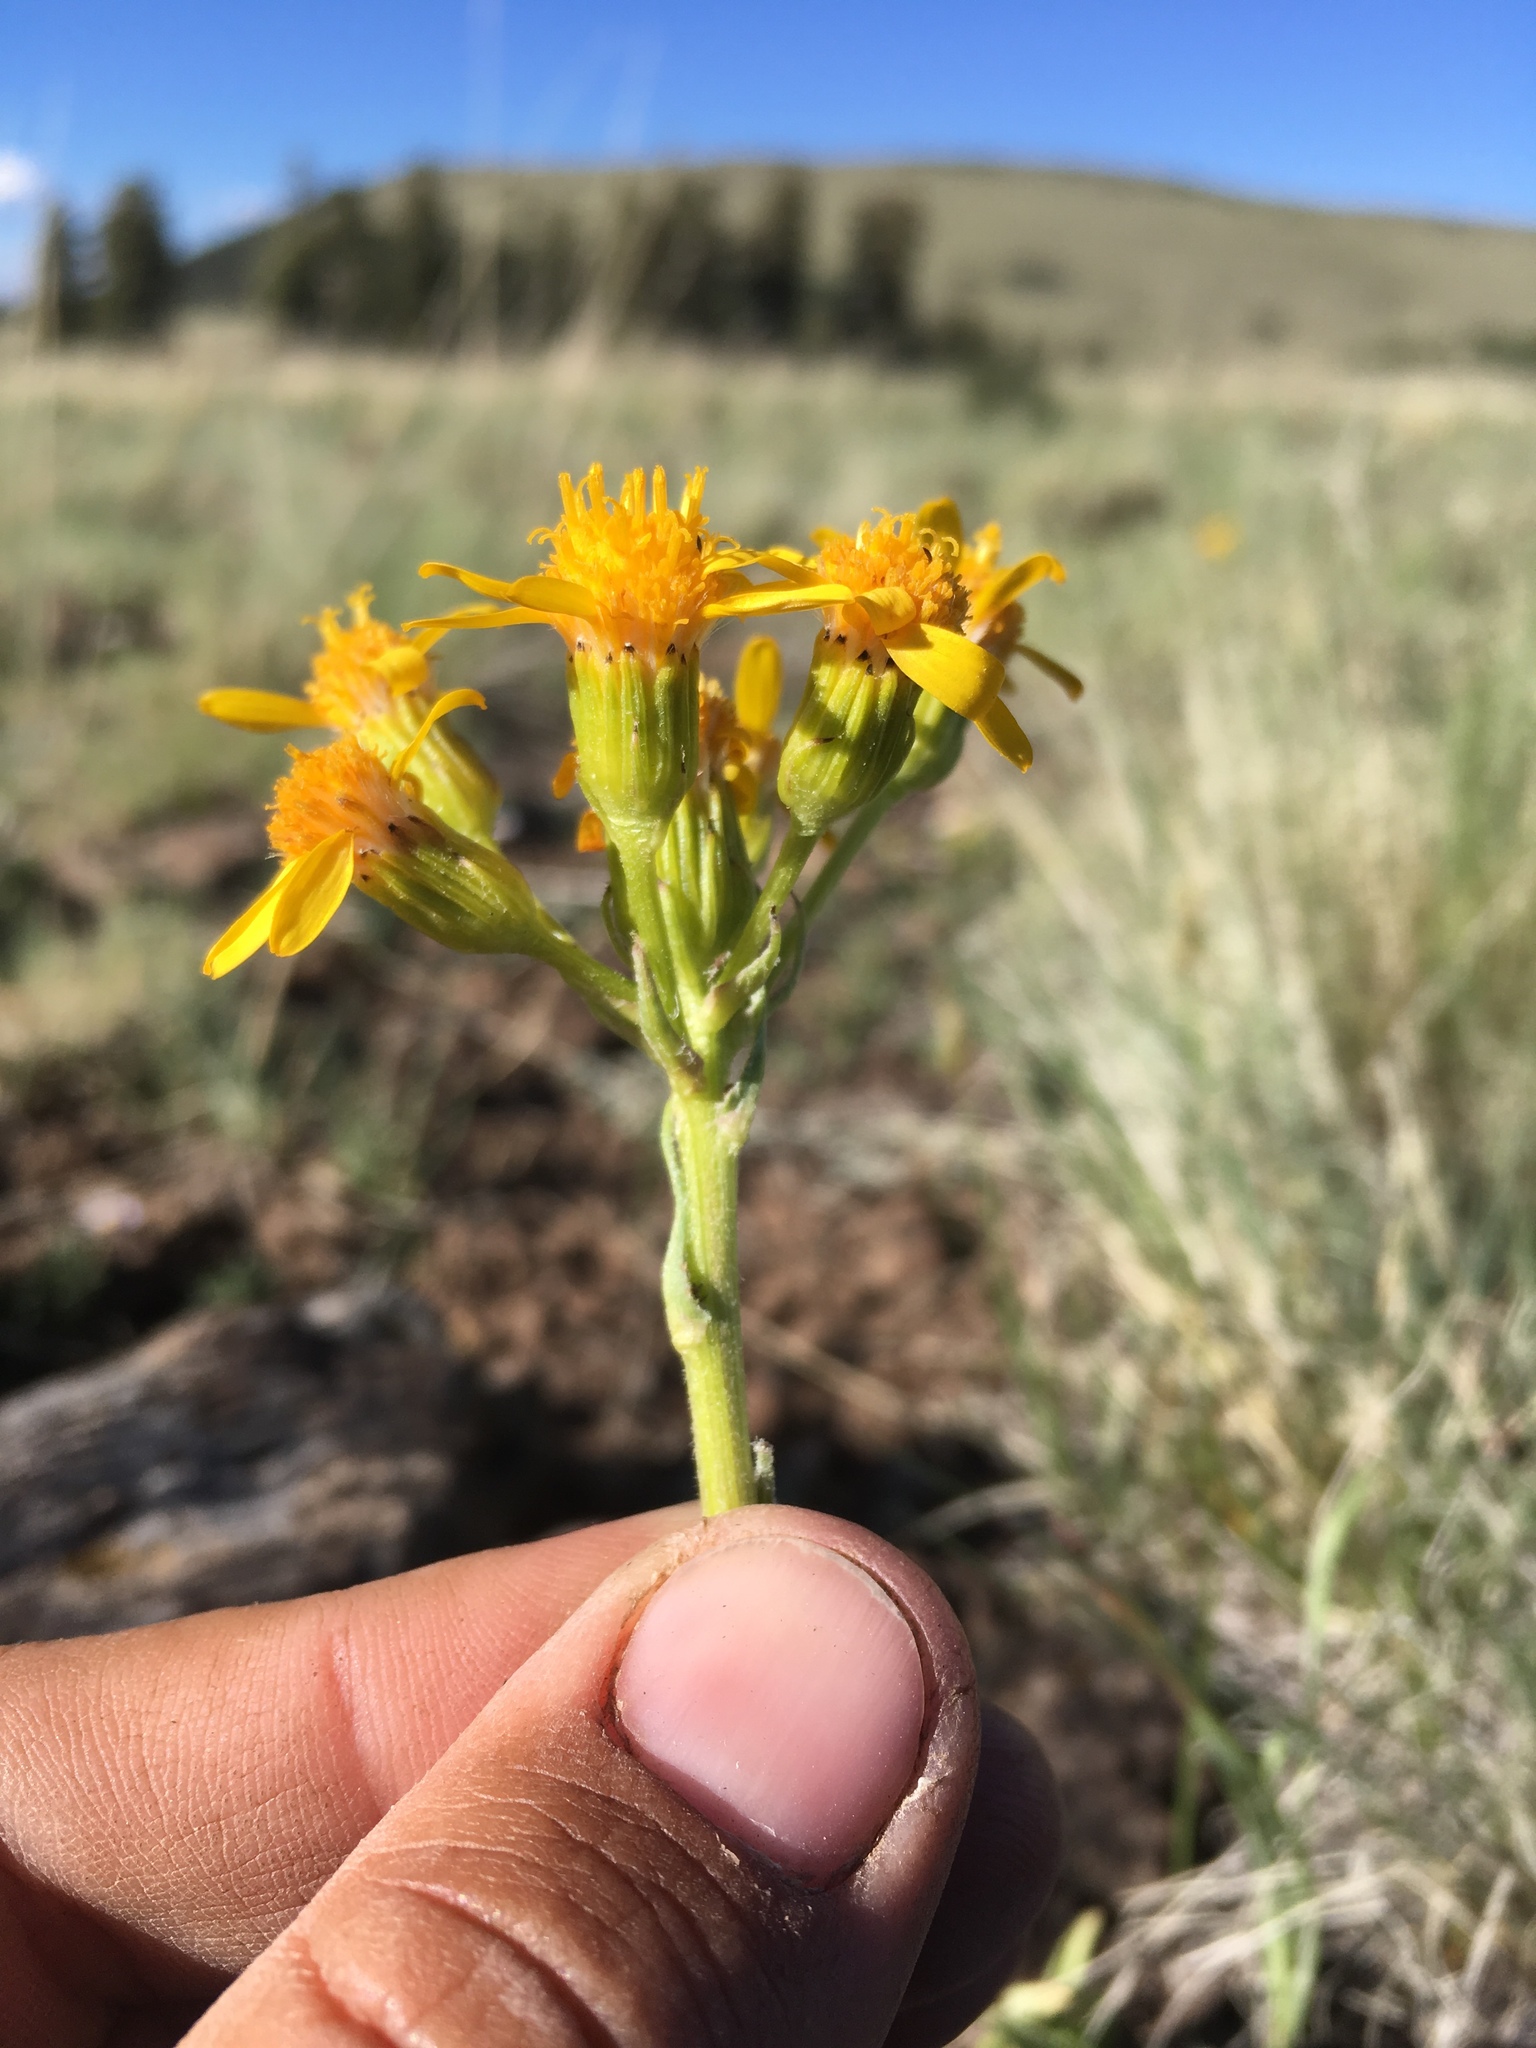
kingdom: Plantae
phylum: Tracheophyta
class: Magnoliopsida
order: Asterales
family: Asteraceae
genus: Senecio
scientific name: Senecio integerrimus
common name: Gaugeplant
